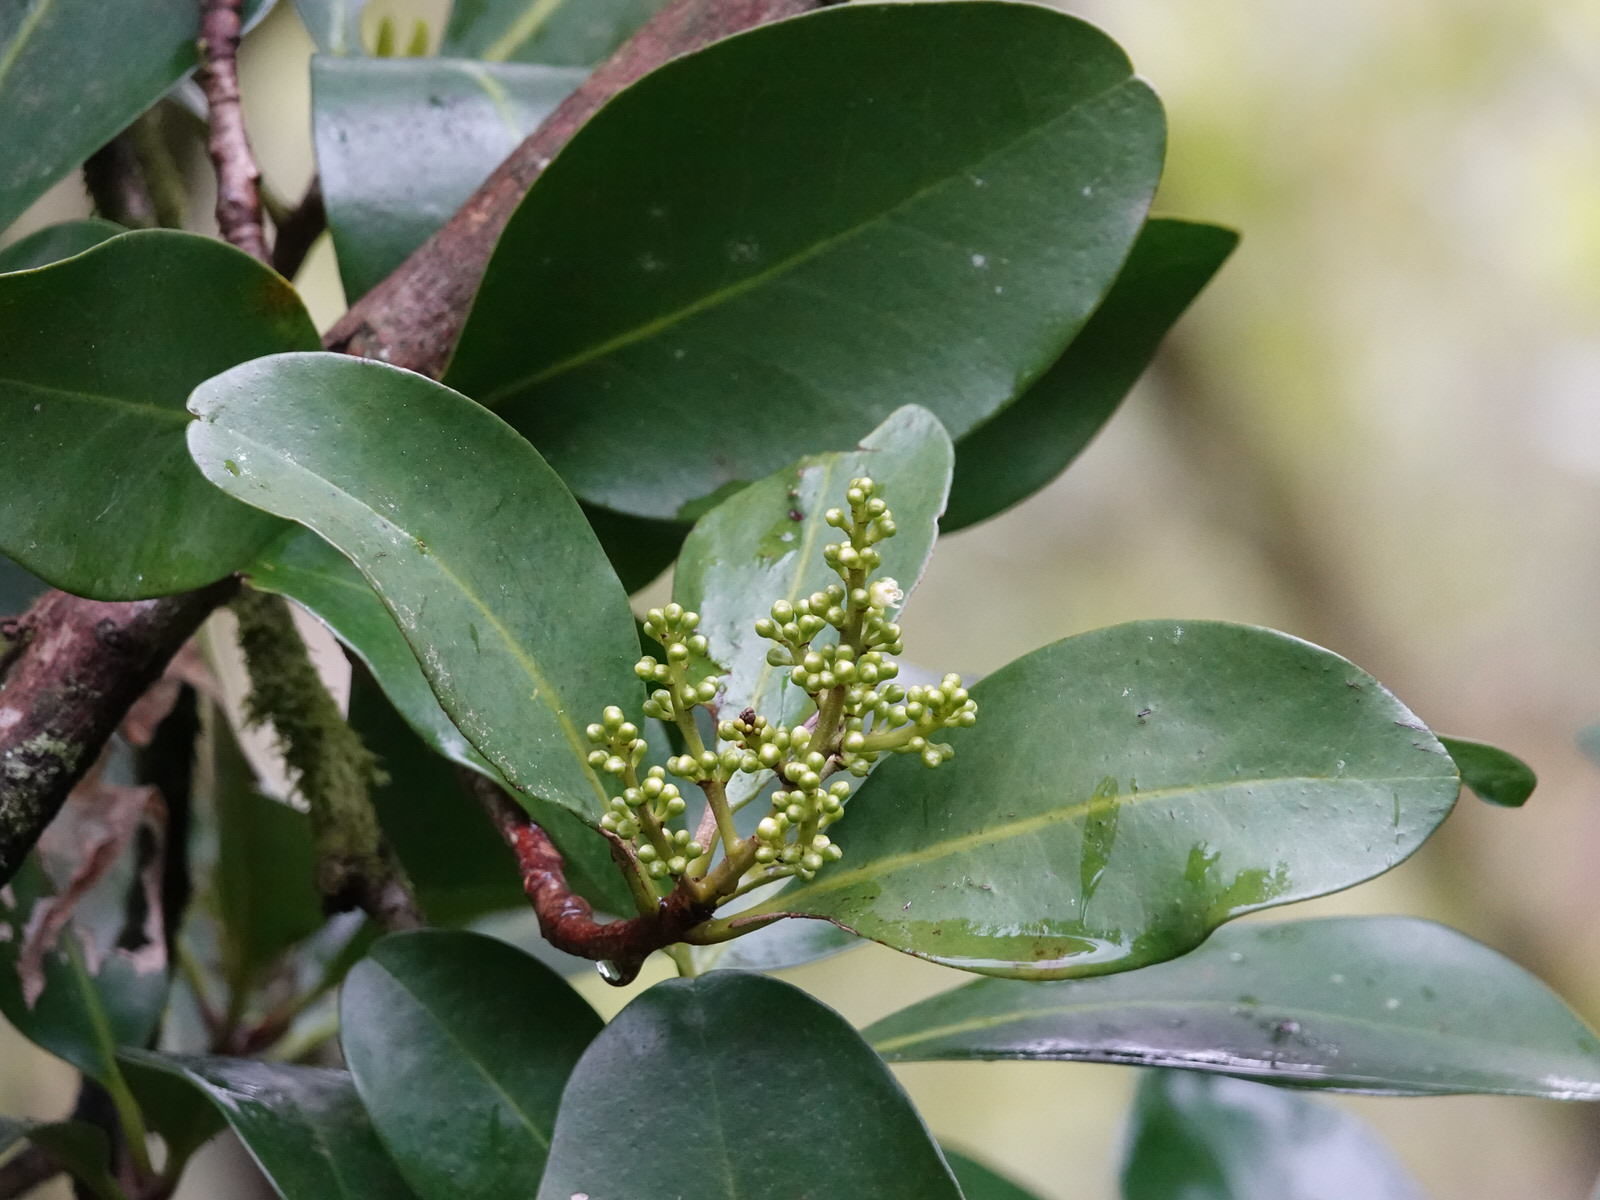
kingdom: Plantae
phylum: Tracheophyta
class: Magnoliopsida
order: Cucurbitales
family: Corynocarpaceae
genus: Corynocarpus
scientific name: Corynocarpus laevigatus
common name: New zealand laurel
